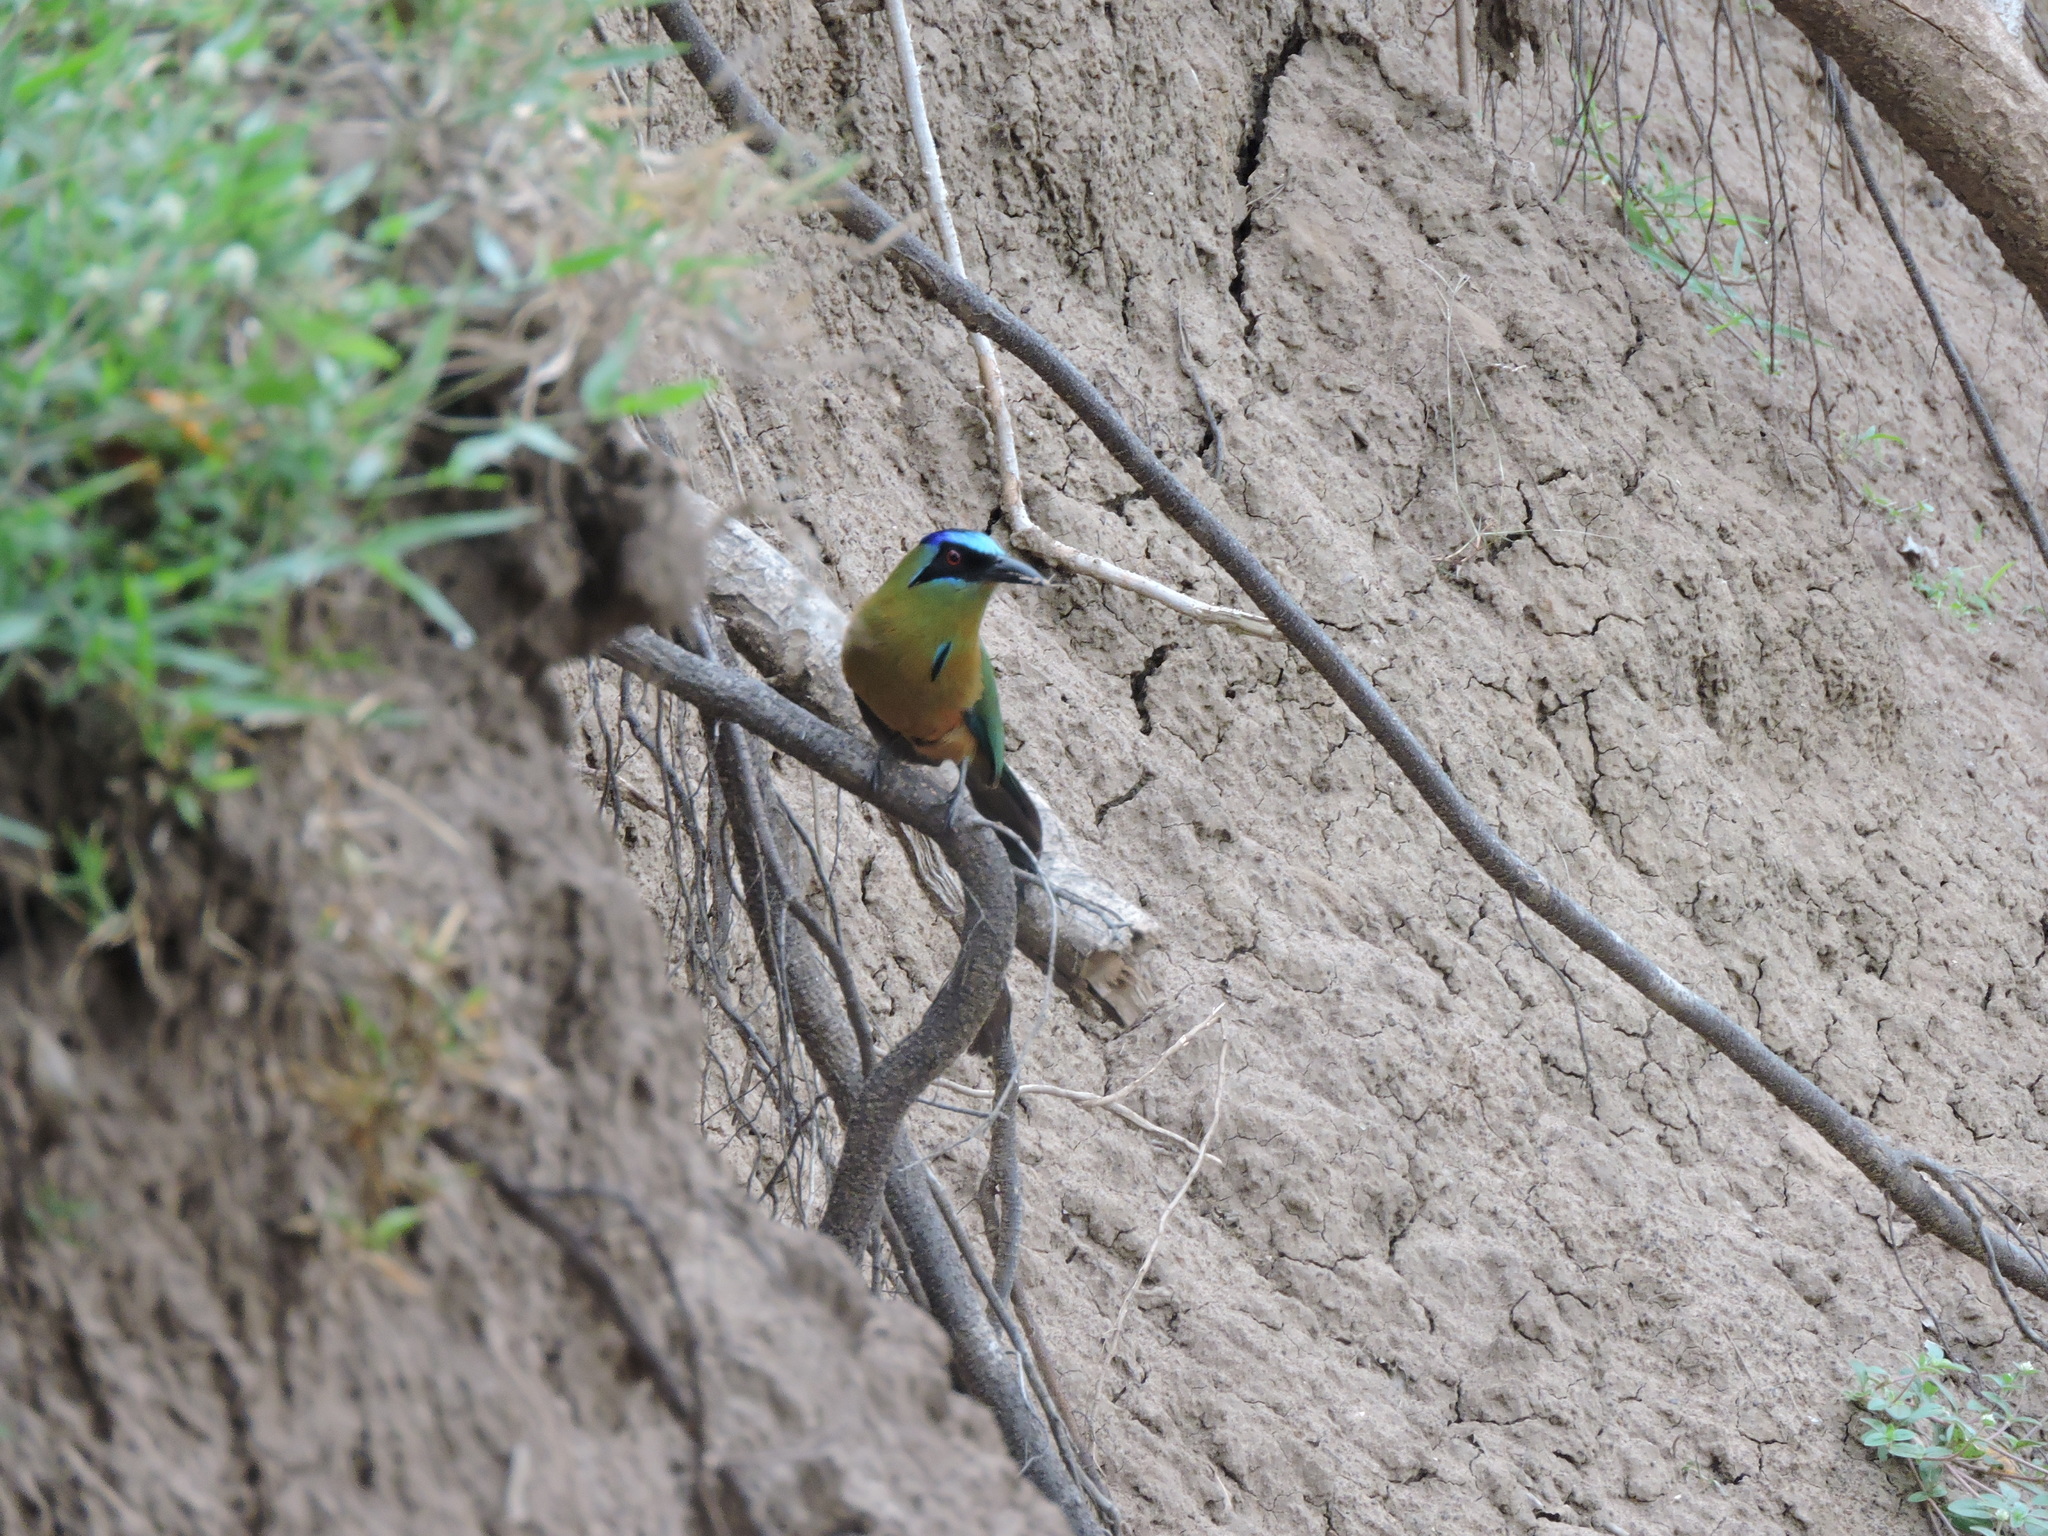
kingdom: Animalia
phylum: Chordata
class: Aves
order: Coraciiformes
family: Momotidae
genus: Momotus
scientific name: Momotus momota
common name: Amazonian motmot
